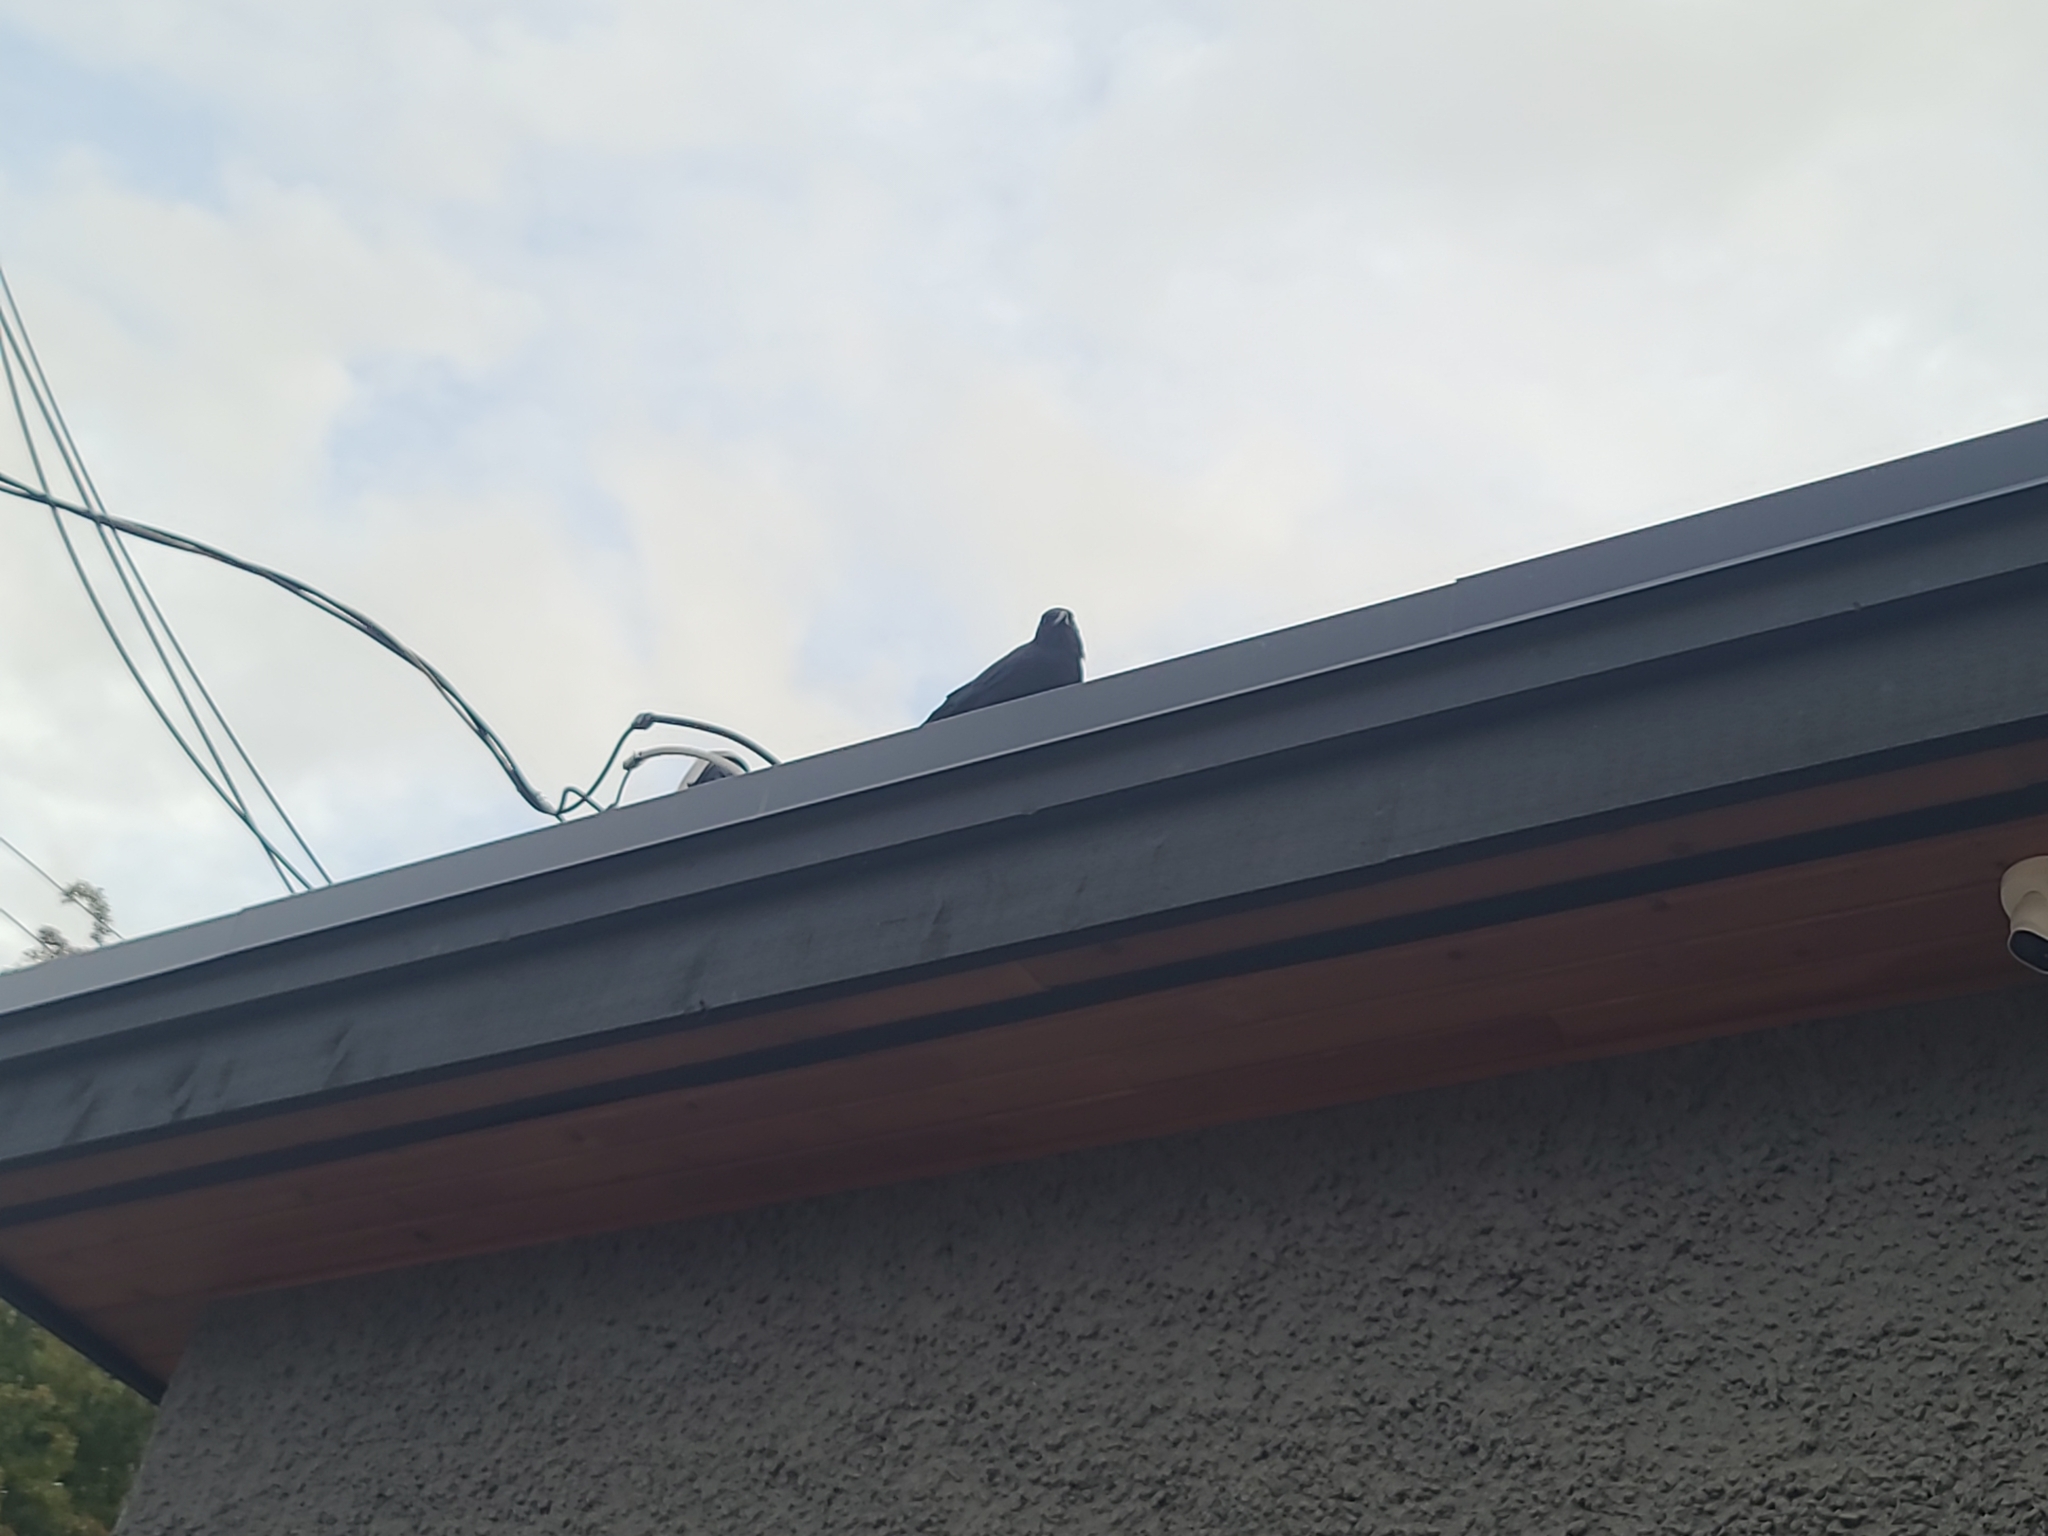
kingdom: Animalia
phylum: Chordata
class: Aves
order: Passeriformes
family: Corvidae
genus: Corvus
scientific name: Corvus brachyrhynchos
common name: American crow
